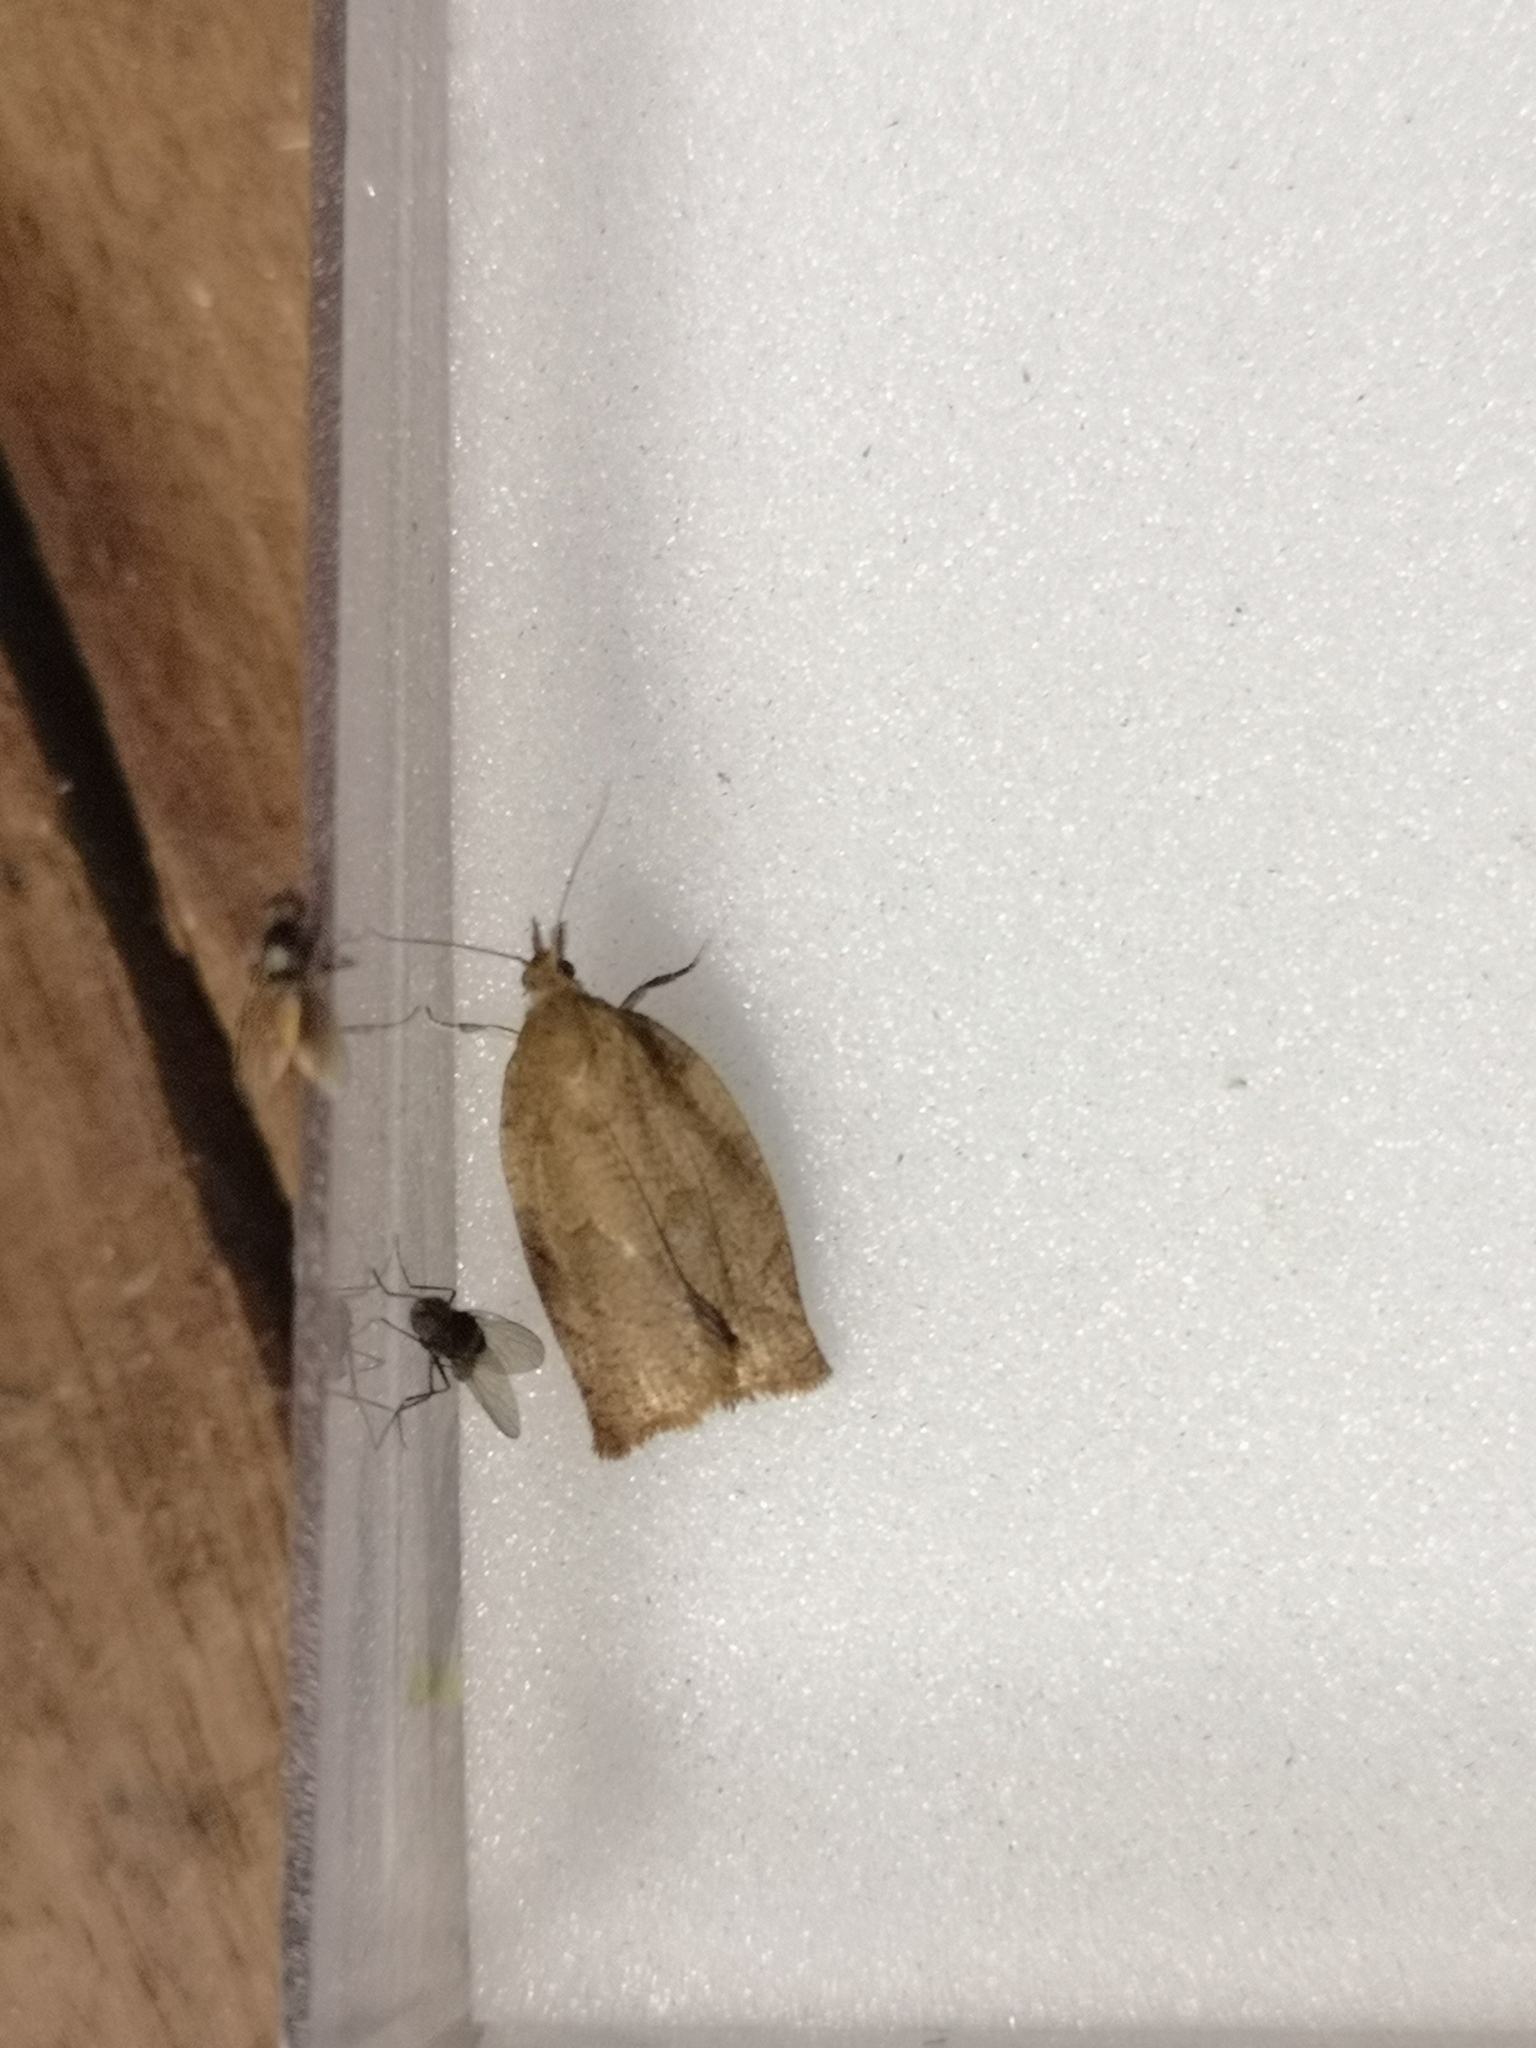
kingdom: Animalia
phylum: Arthropoda
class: Insecta
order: Lepidoptera
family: Tortricidae
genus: Pandemis
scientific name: Pandemis heparana
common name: Dark fruit-tree tortrix
